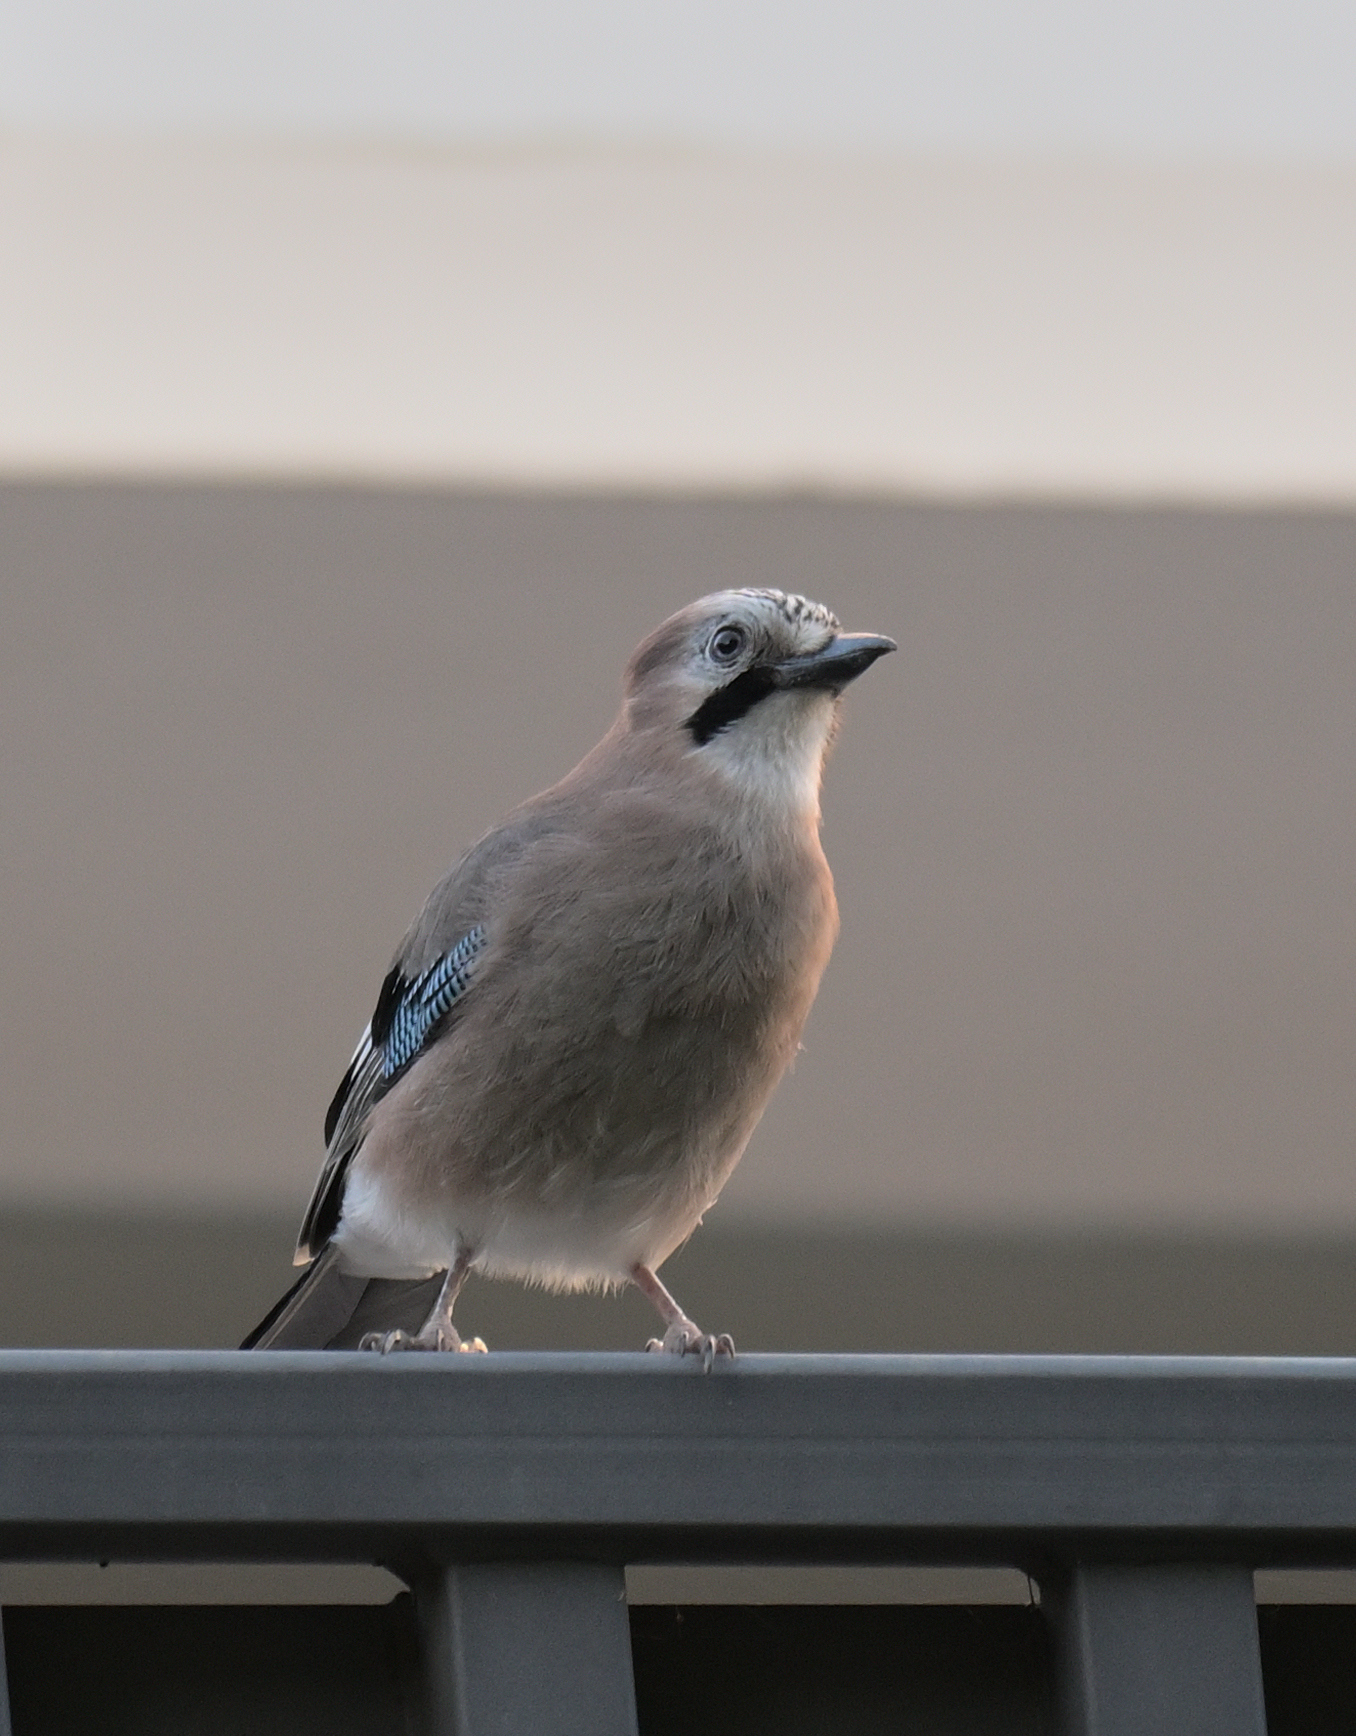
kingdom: Animalia
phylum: Chordata
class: Aves
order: Passeriformes
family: Corvidae
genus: Garrulus
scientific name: Garrulus glandarius
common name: Eurasian jay
